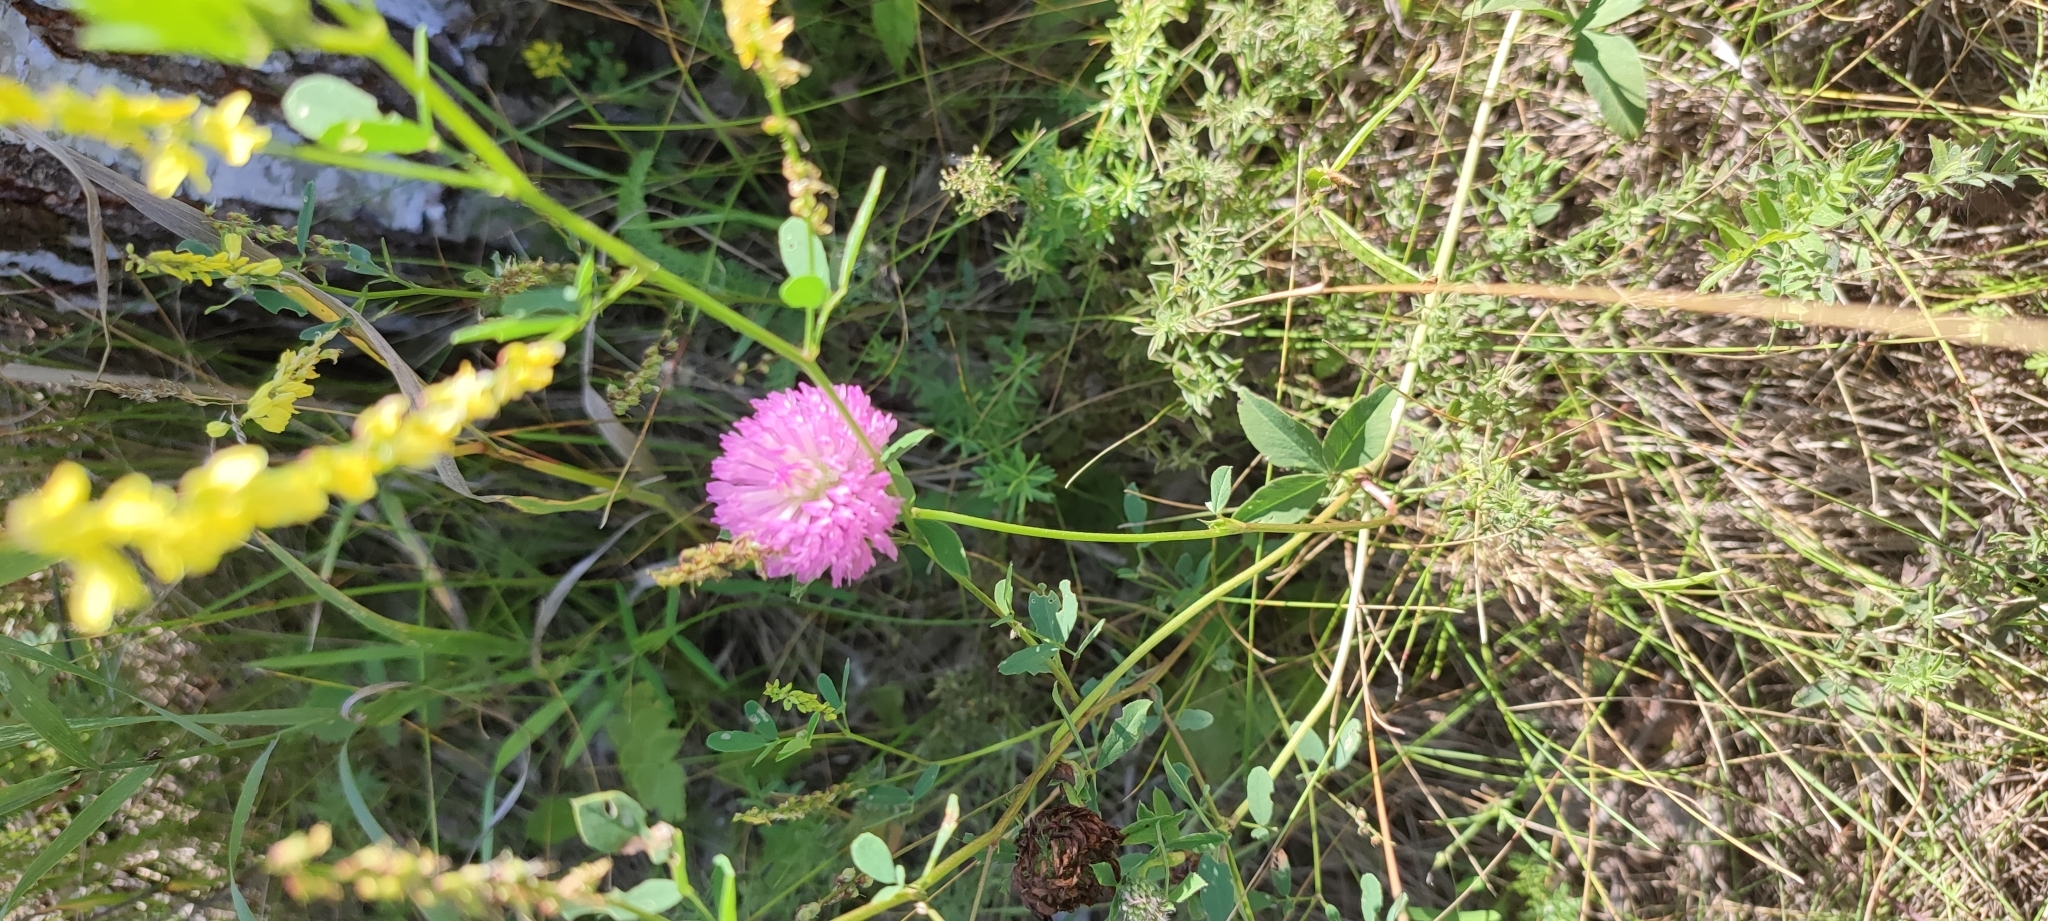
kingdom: Plantae
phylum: Tracheophyta
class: Magnoliopsida
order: Fabales
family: Fabaceae
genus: Trifolium
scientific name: Trifolium pratense
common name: Red clover
